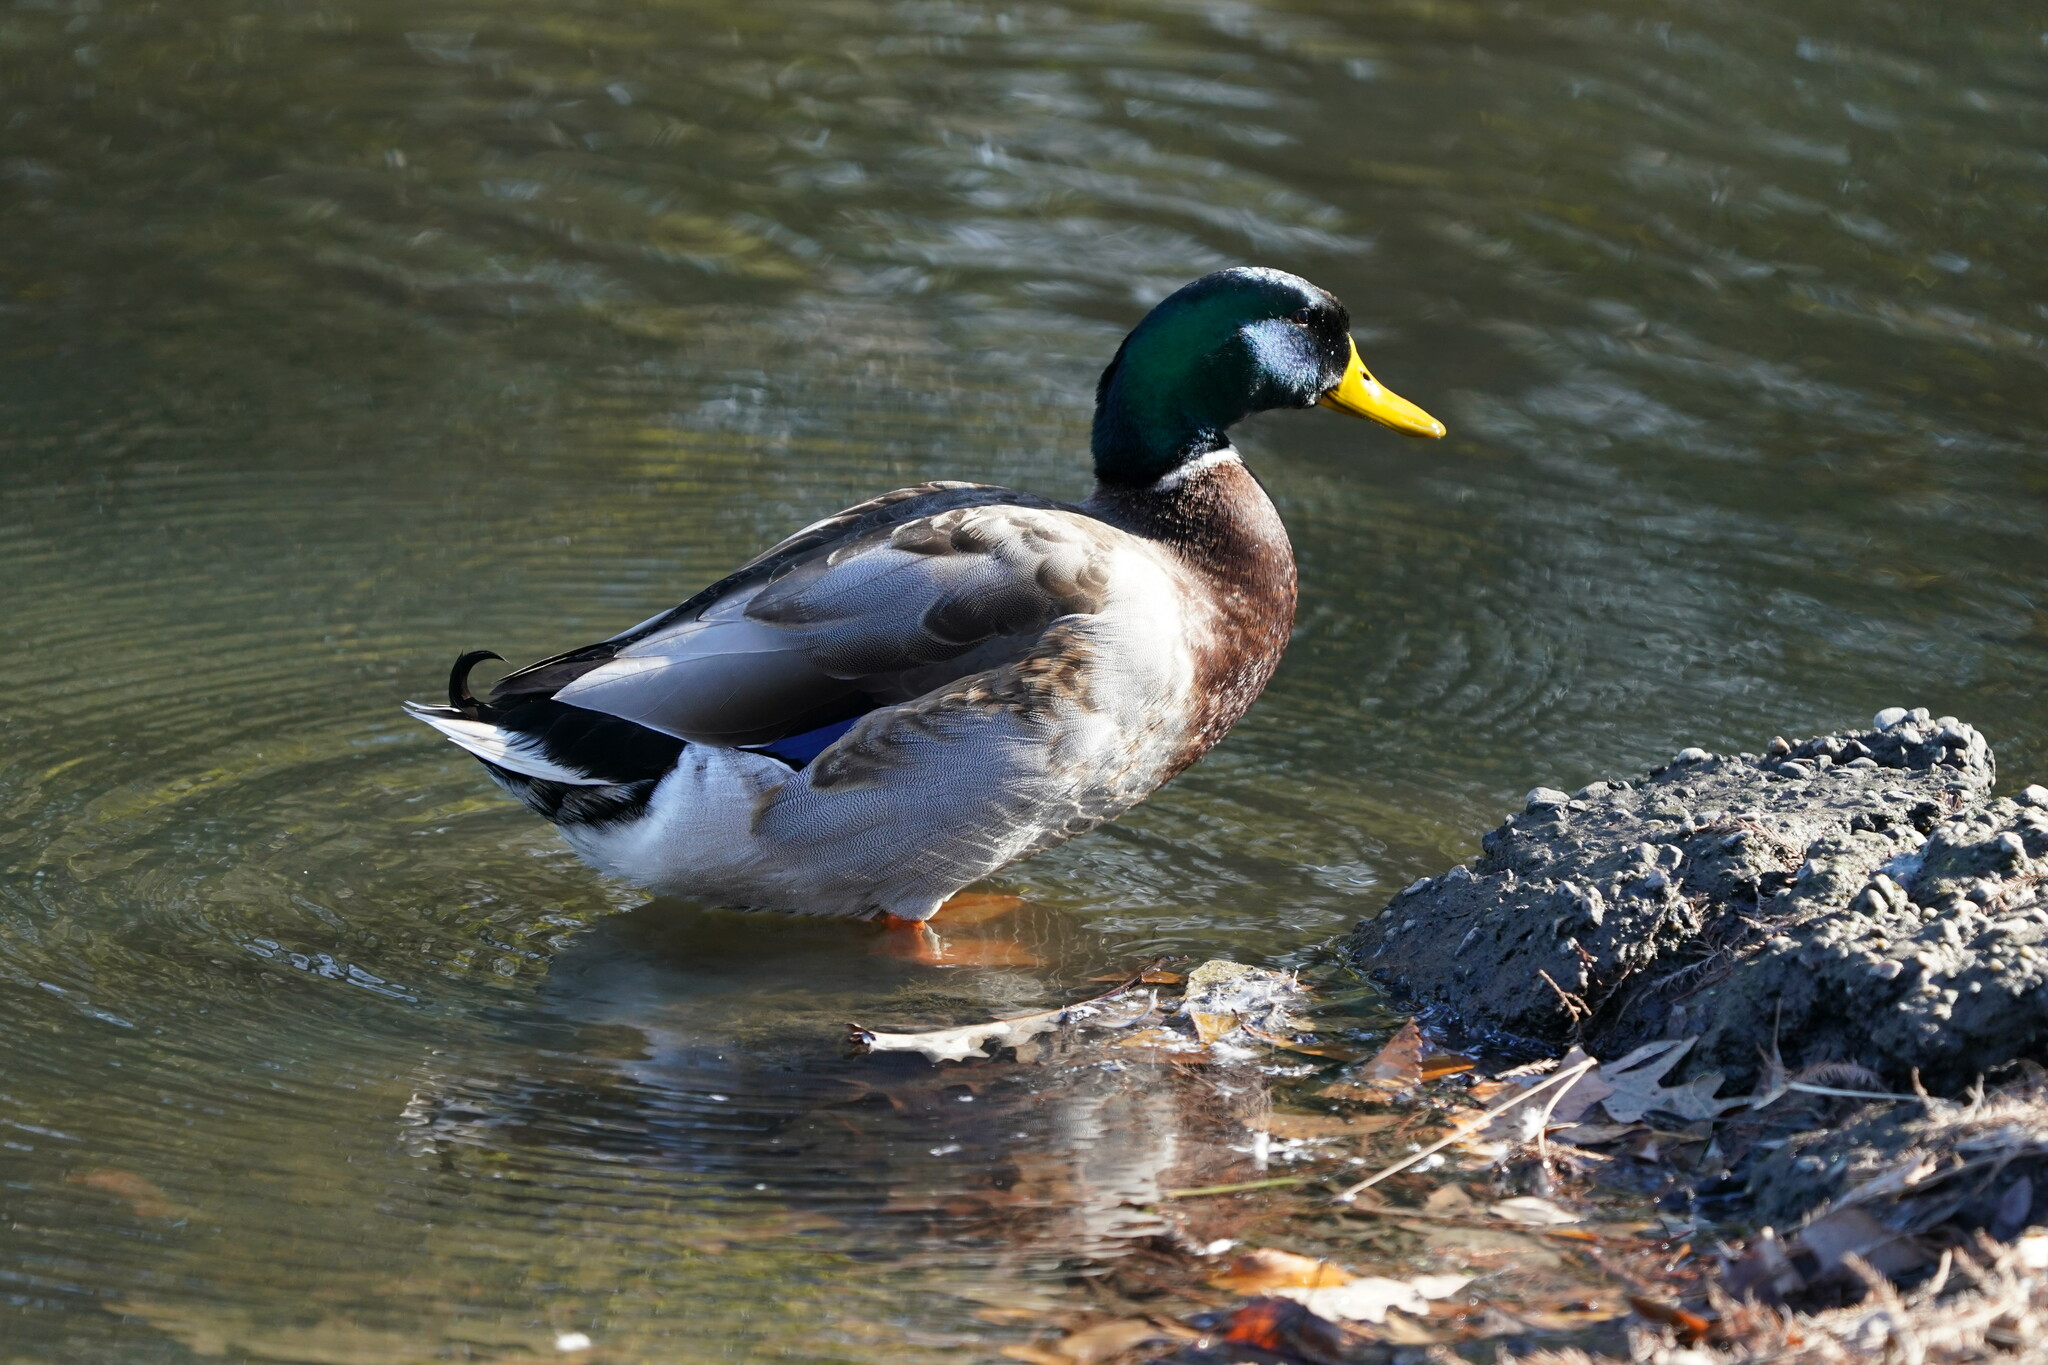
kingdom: Animalia
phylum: Chordata
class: Aves
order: Anseriformes
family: Anatidae
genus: Anas
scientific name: Anas platyrhynchos
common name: Mallard
